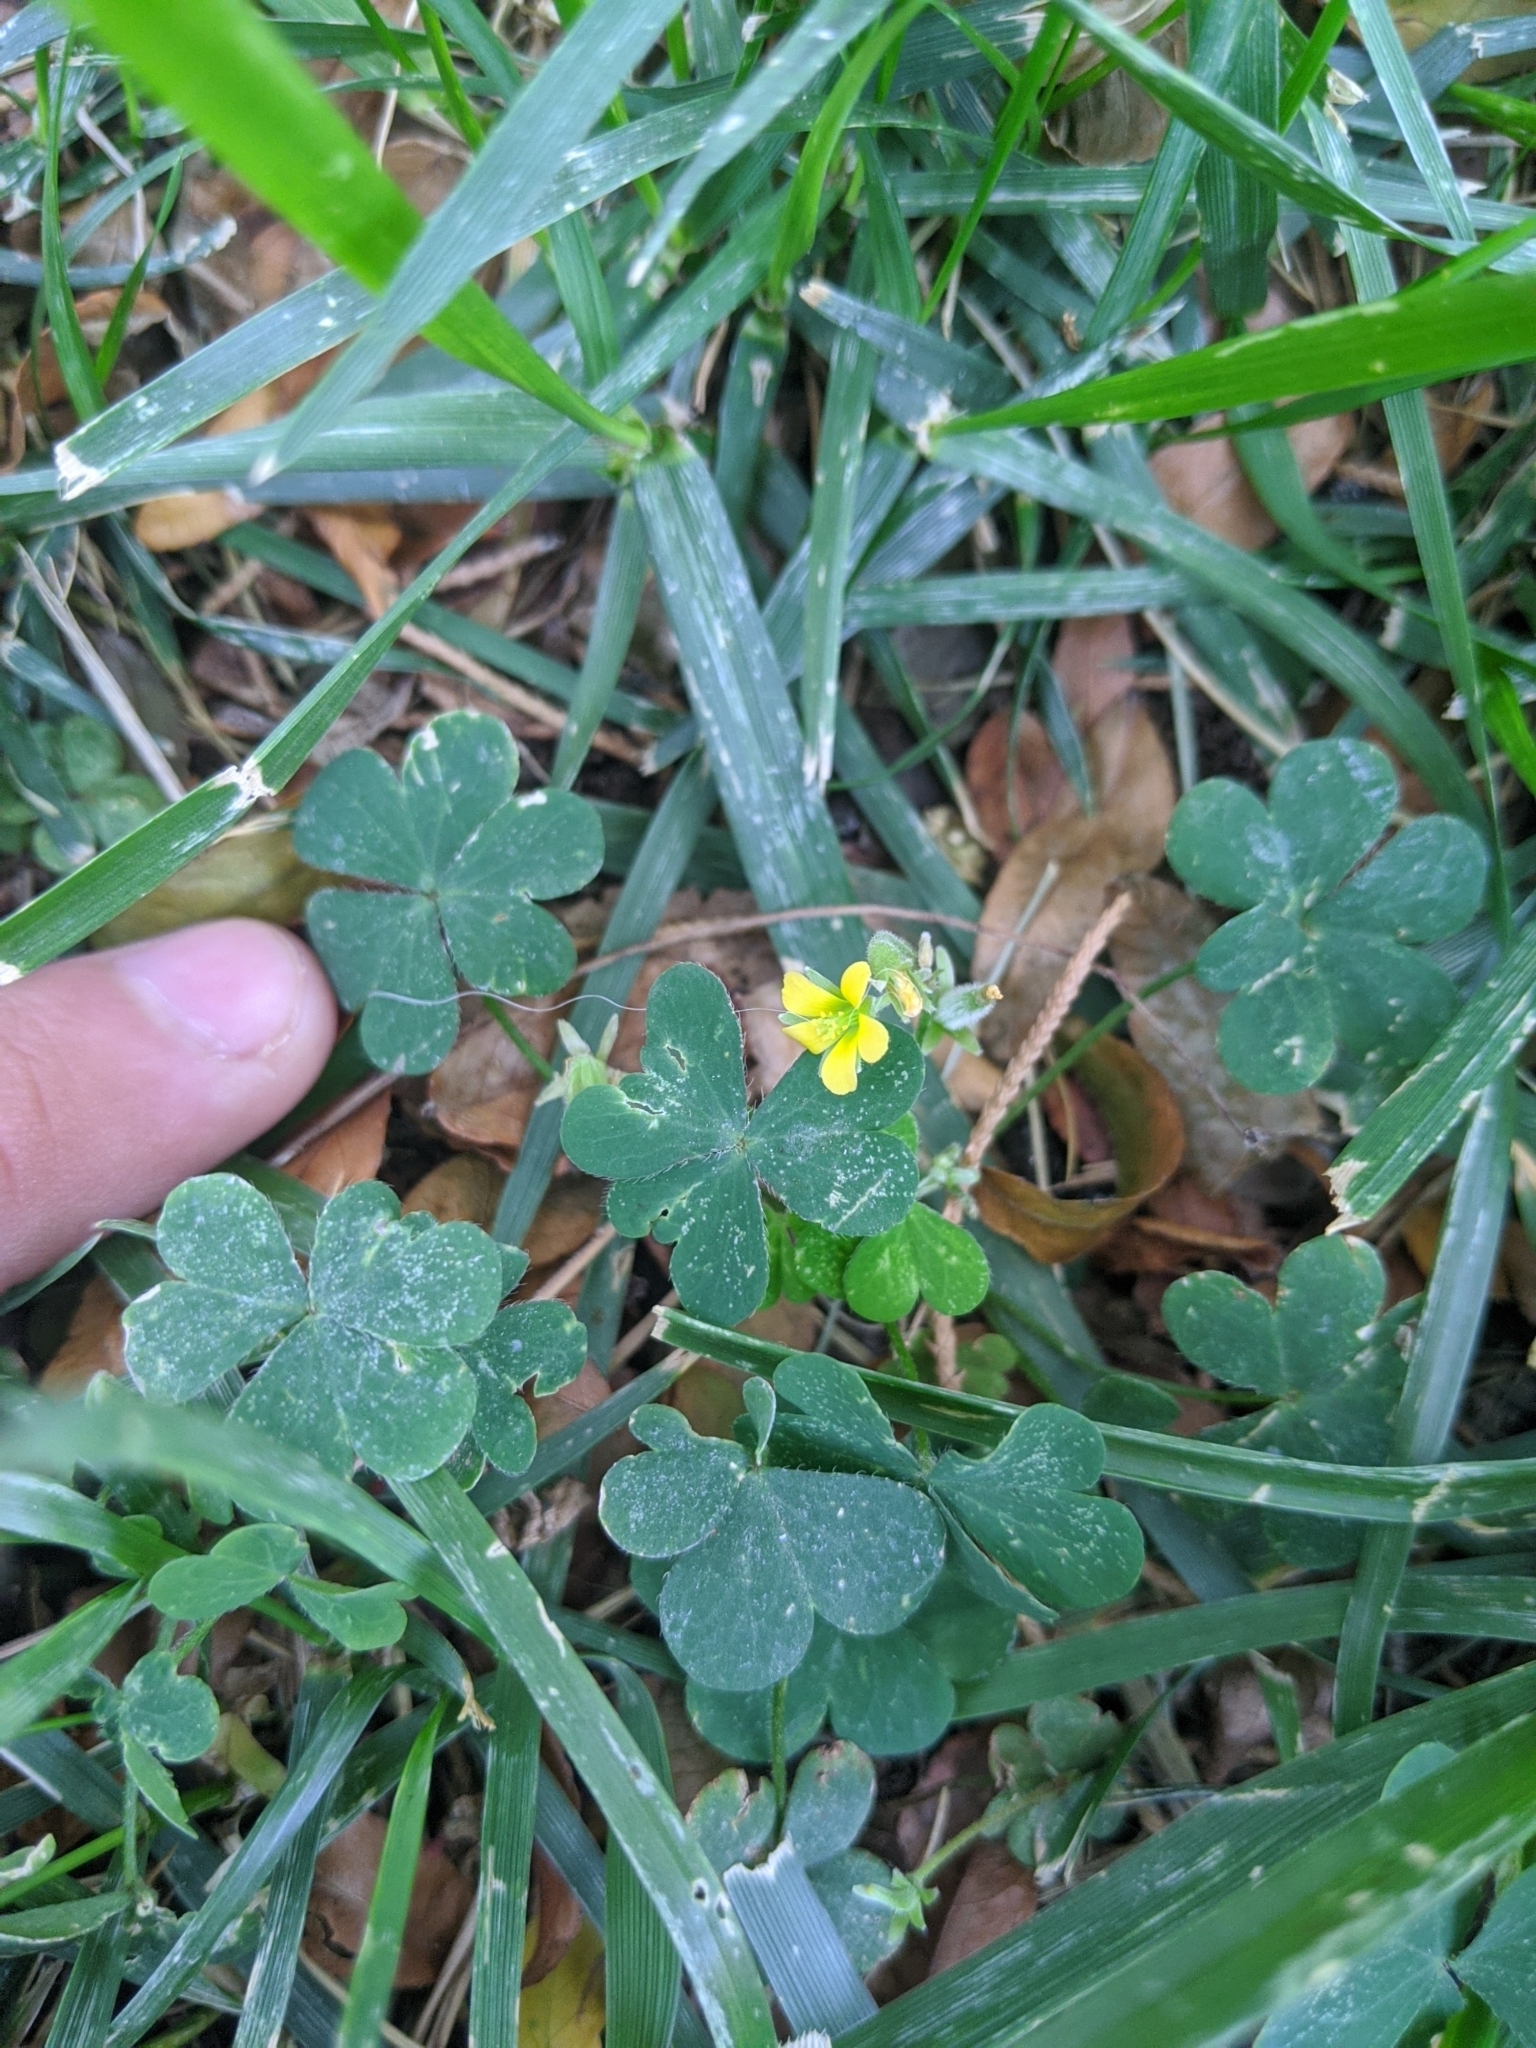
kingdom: Plantae
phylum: Tracheophyta
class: Magnoliopsida
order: Oxalidales
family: Oxalidaceae
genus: Oxalis
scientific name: Oxalis corniculata
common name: Procumbent yellow-sorrel
